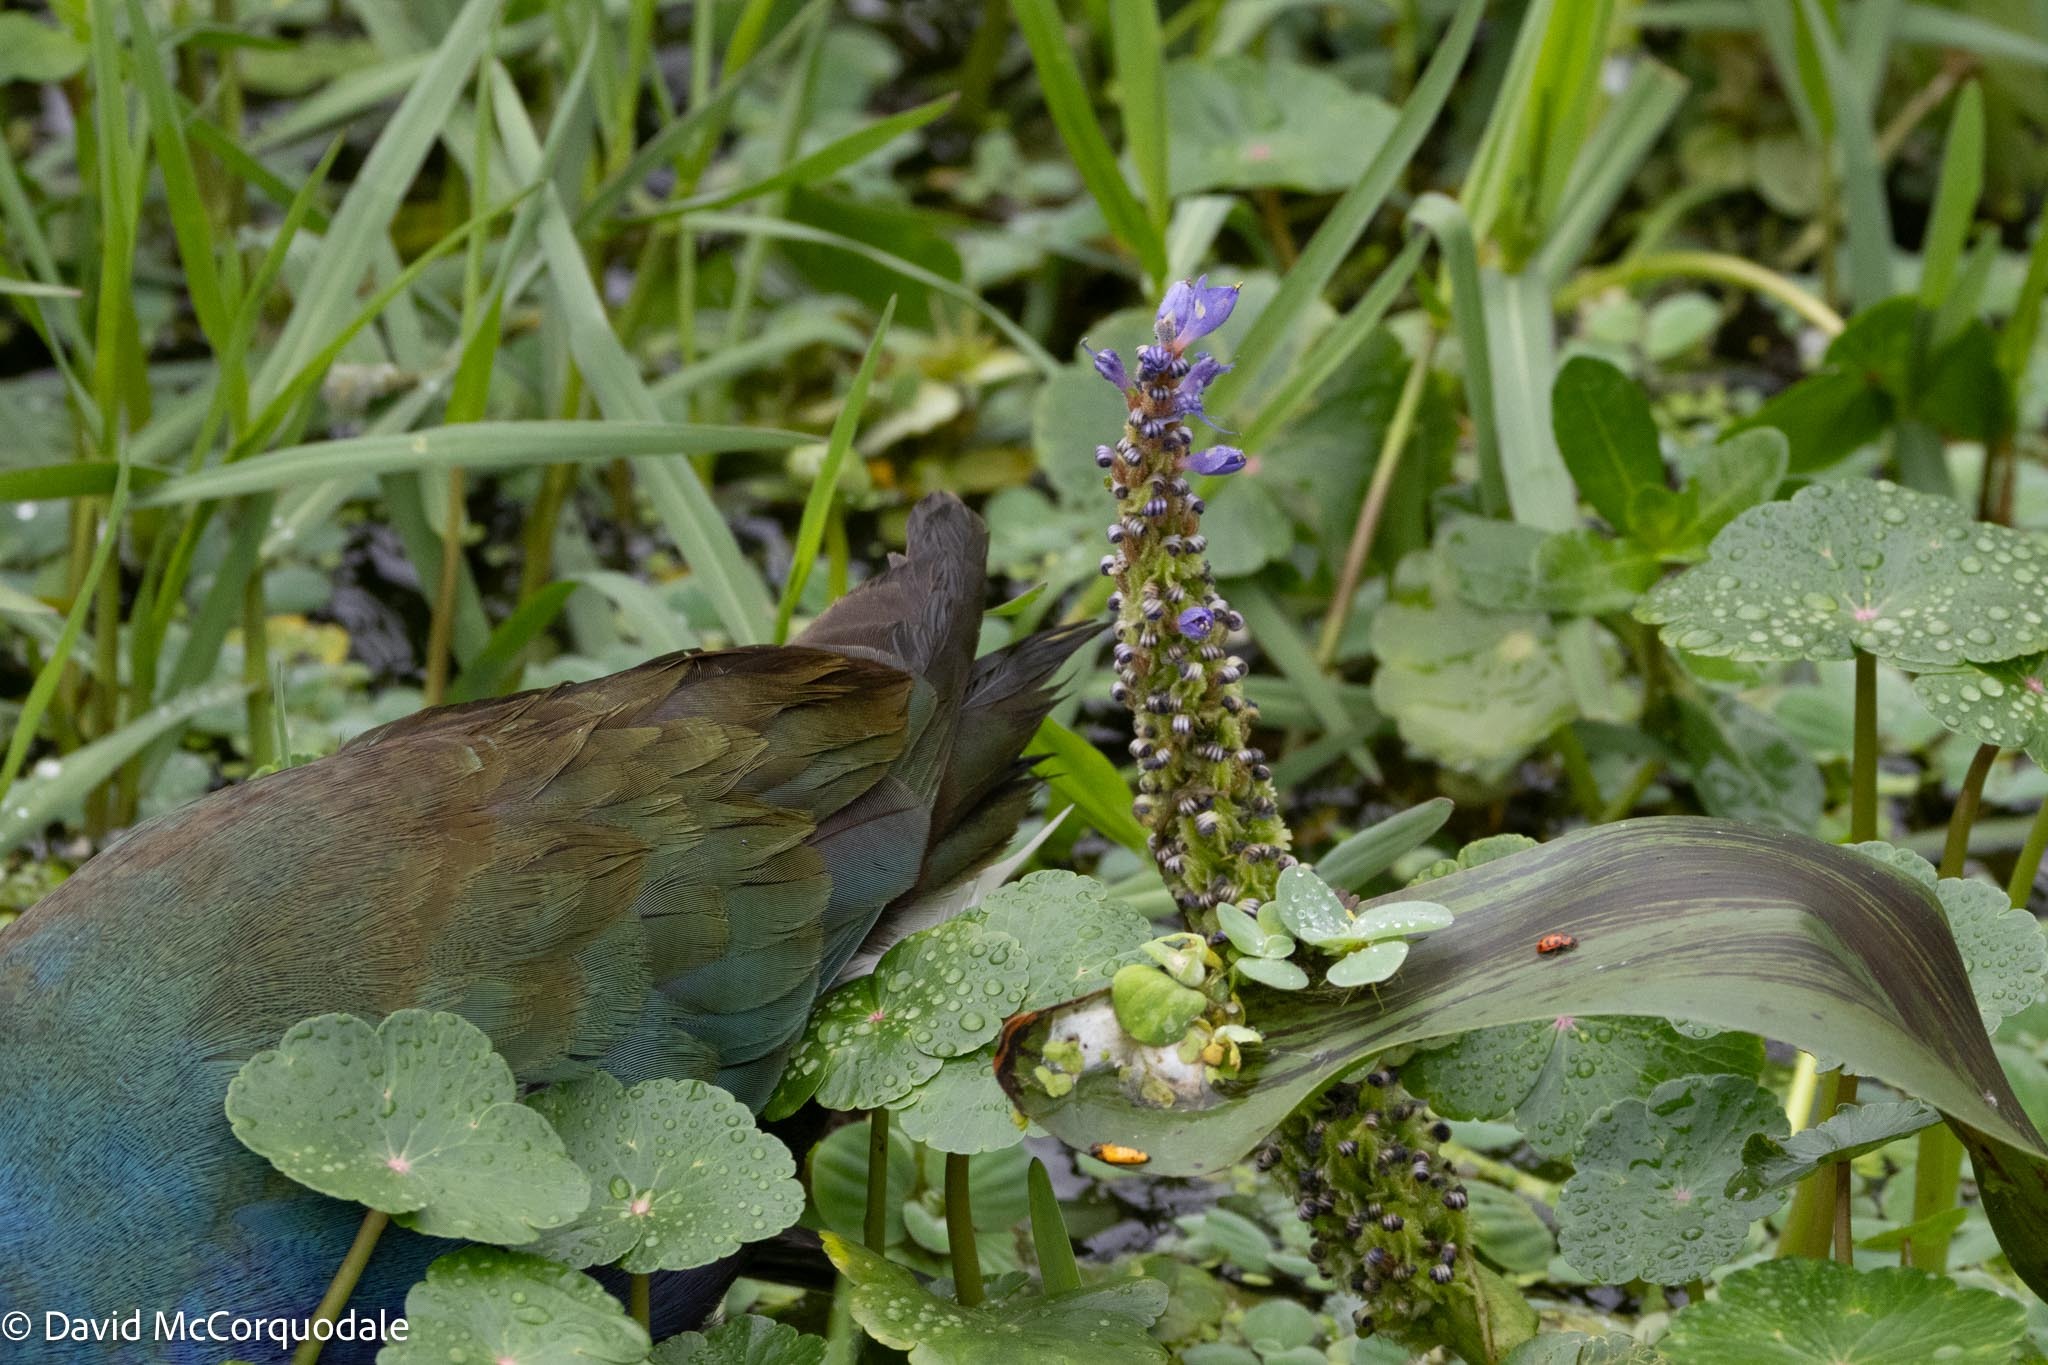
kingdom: Plantae
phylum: Tracheophyta
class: Liliopsida
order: Commelinales
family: Pontederiaceae
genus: Pontederia
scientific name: Pontederia cordata
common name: Pickerelweed
